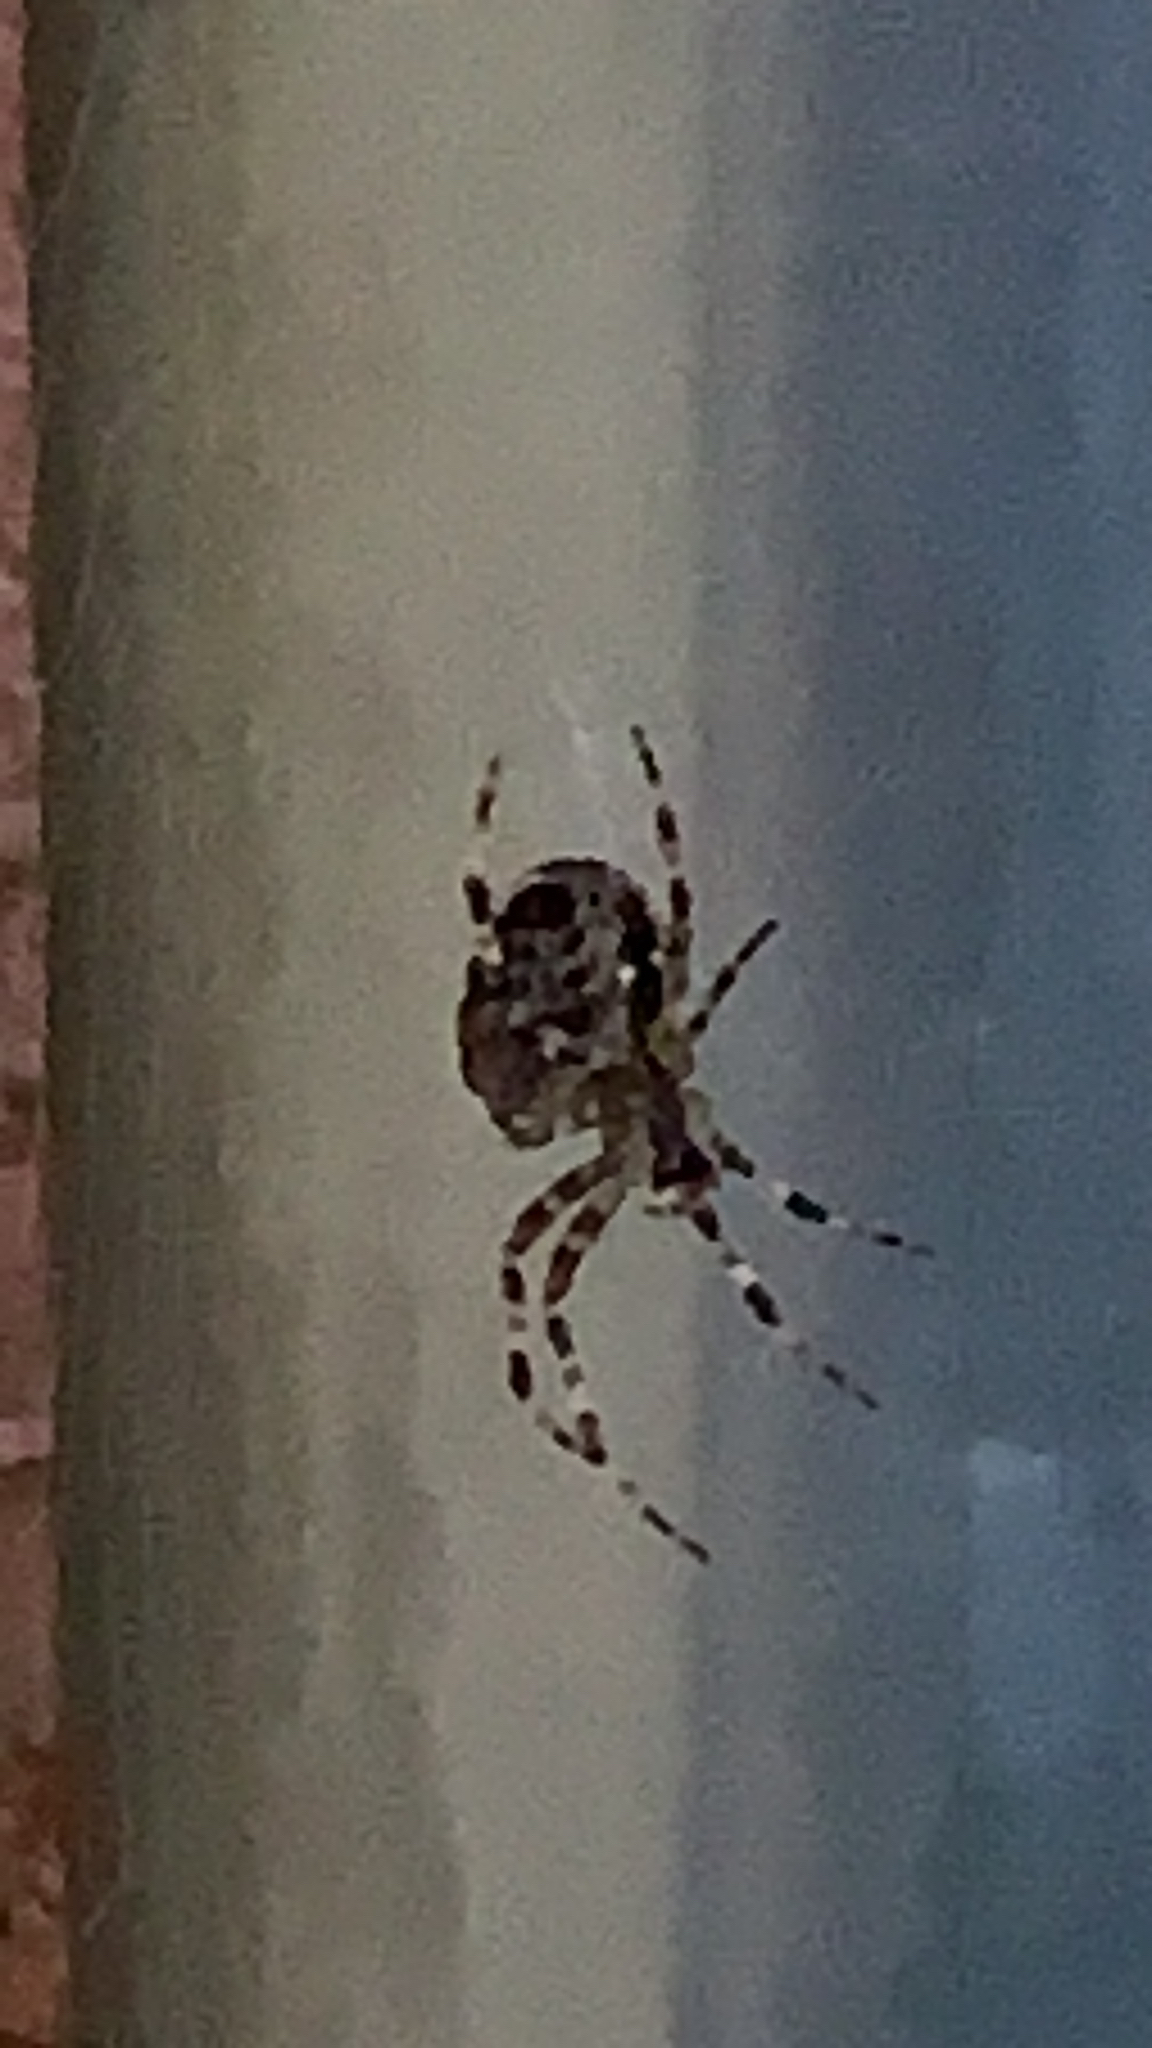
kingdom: Animalia
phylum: Arthropoda
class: Arachnida
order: Araneae
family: Araneidae
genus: Araneus
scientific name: Araneus diadematus
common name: Cross orbweaver
